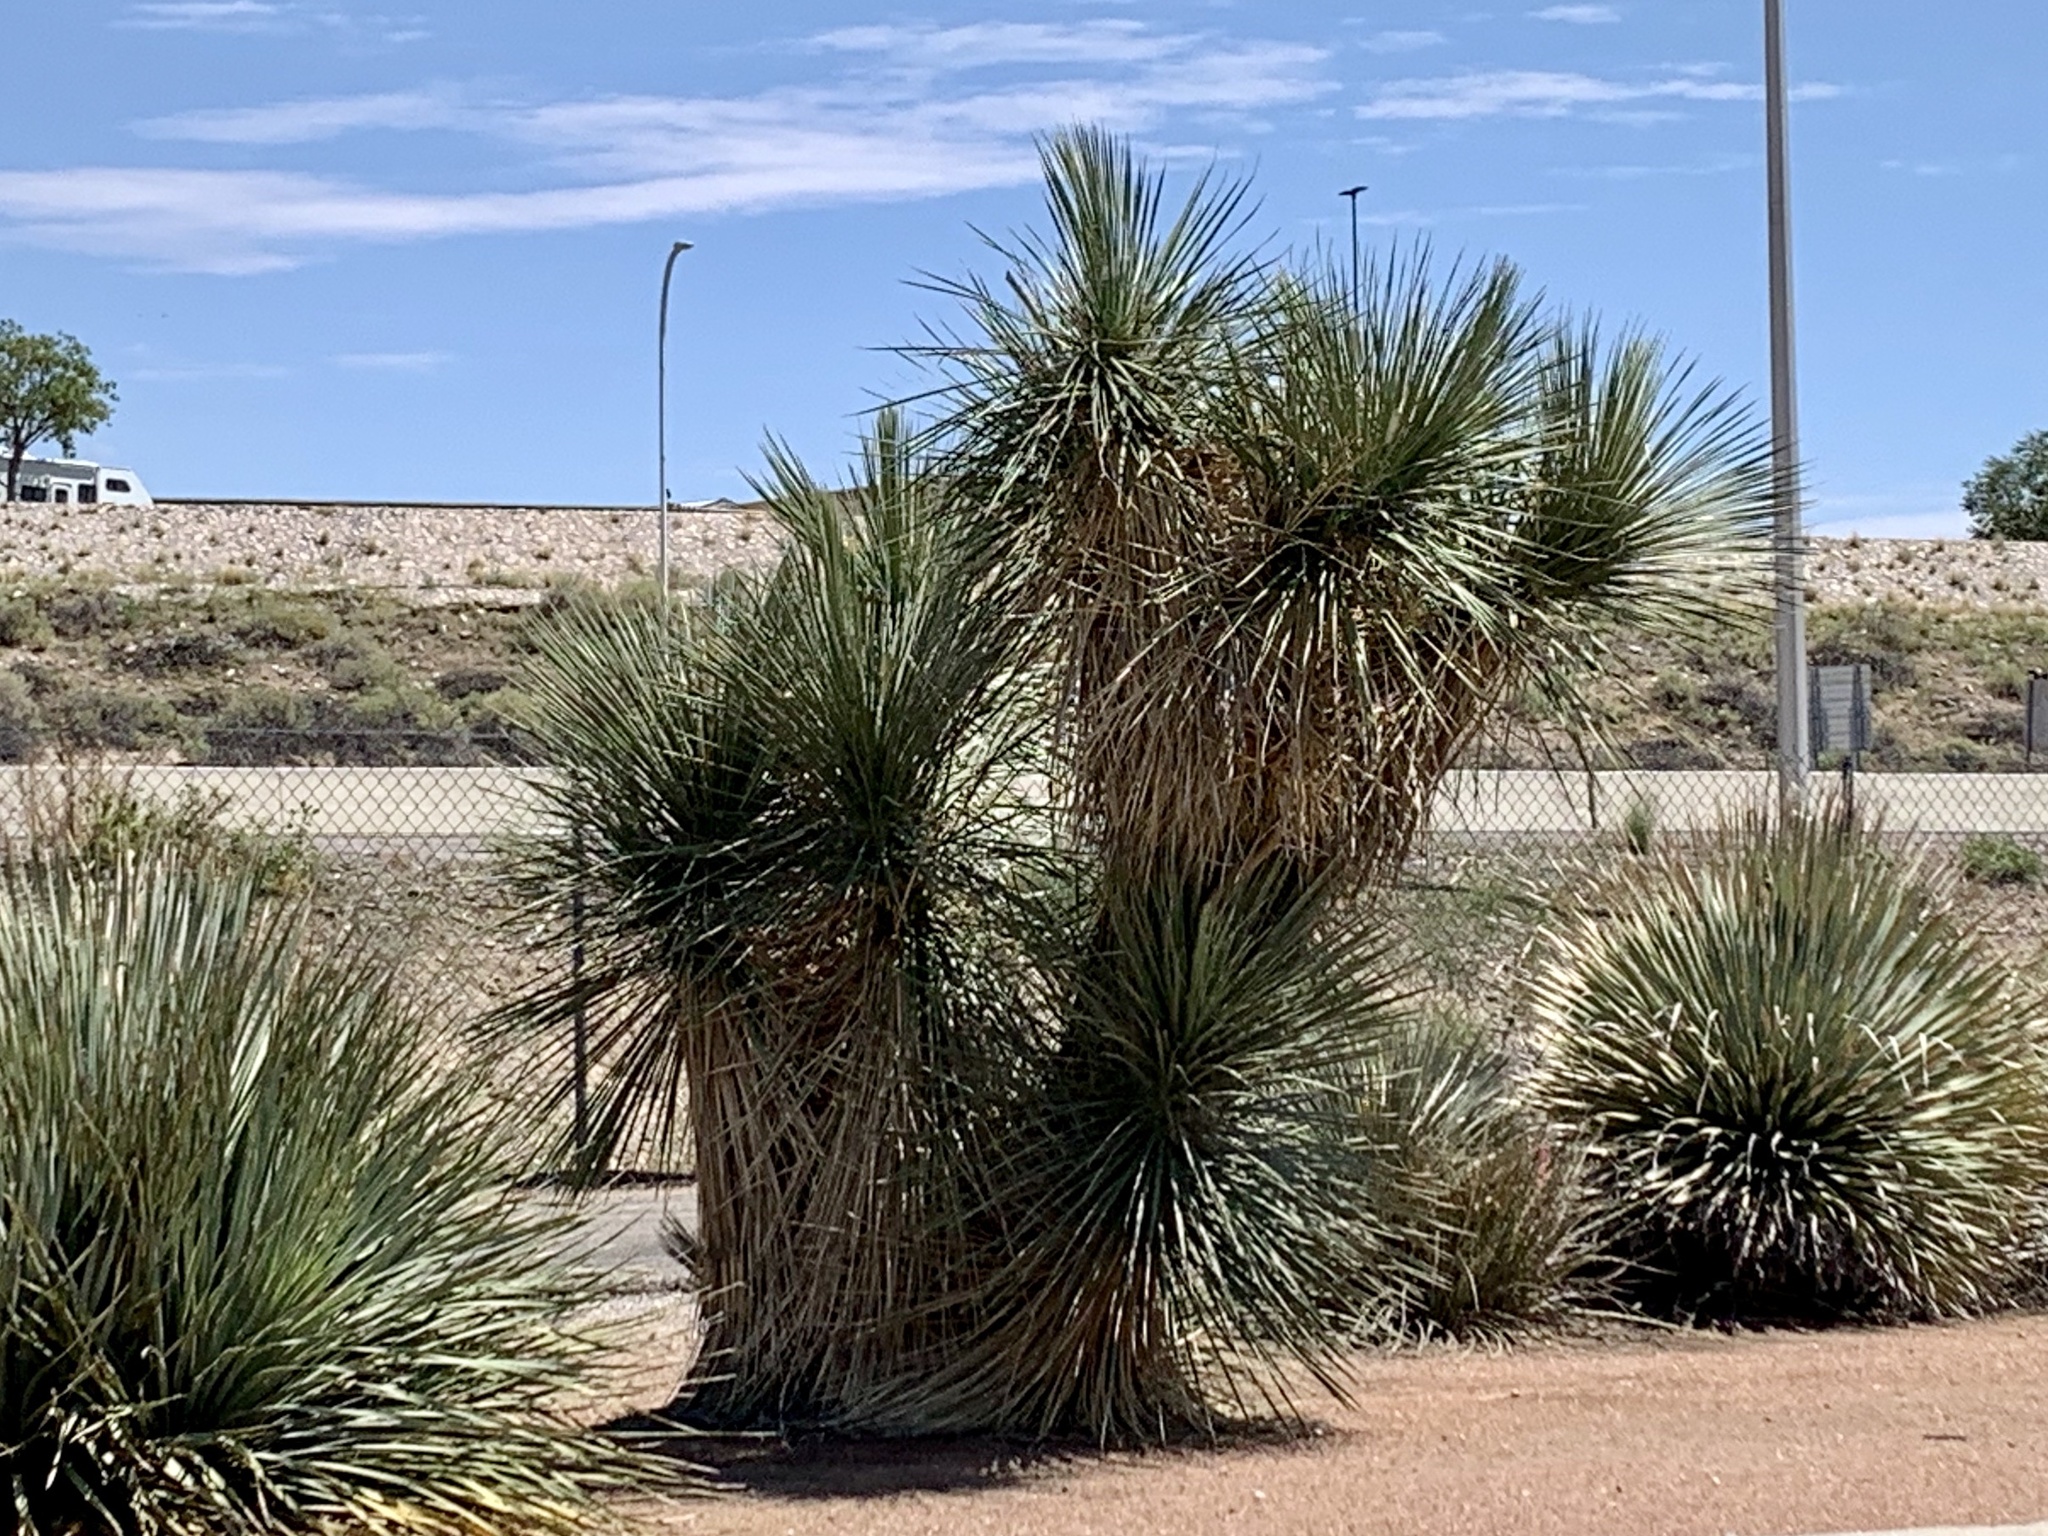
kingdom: Plantae
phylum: Tracheophyta
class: Liliopsida
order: Asparagales
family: Asparagaceae
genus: Yucca
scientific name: Yucca elata
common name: Palmella
